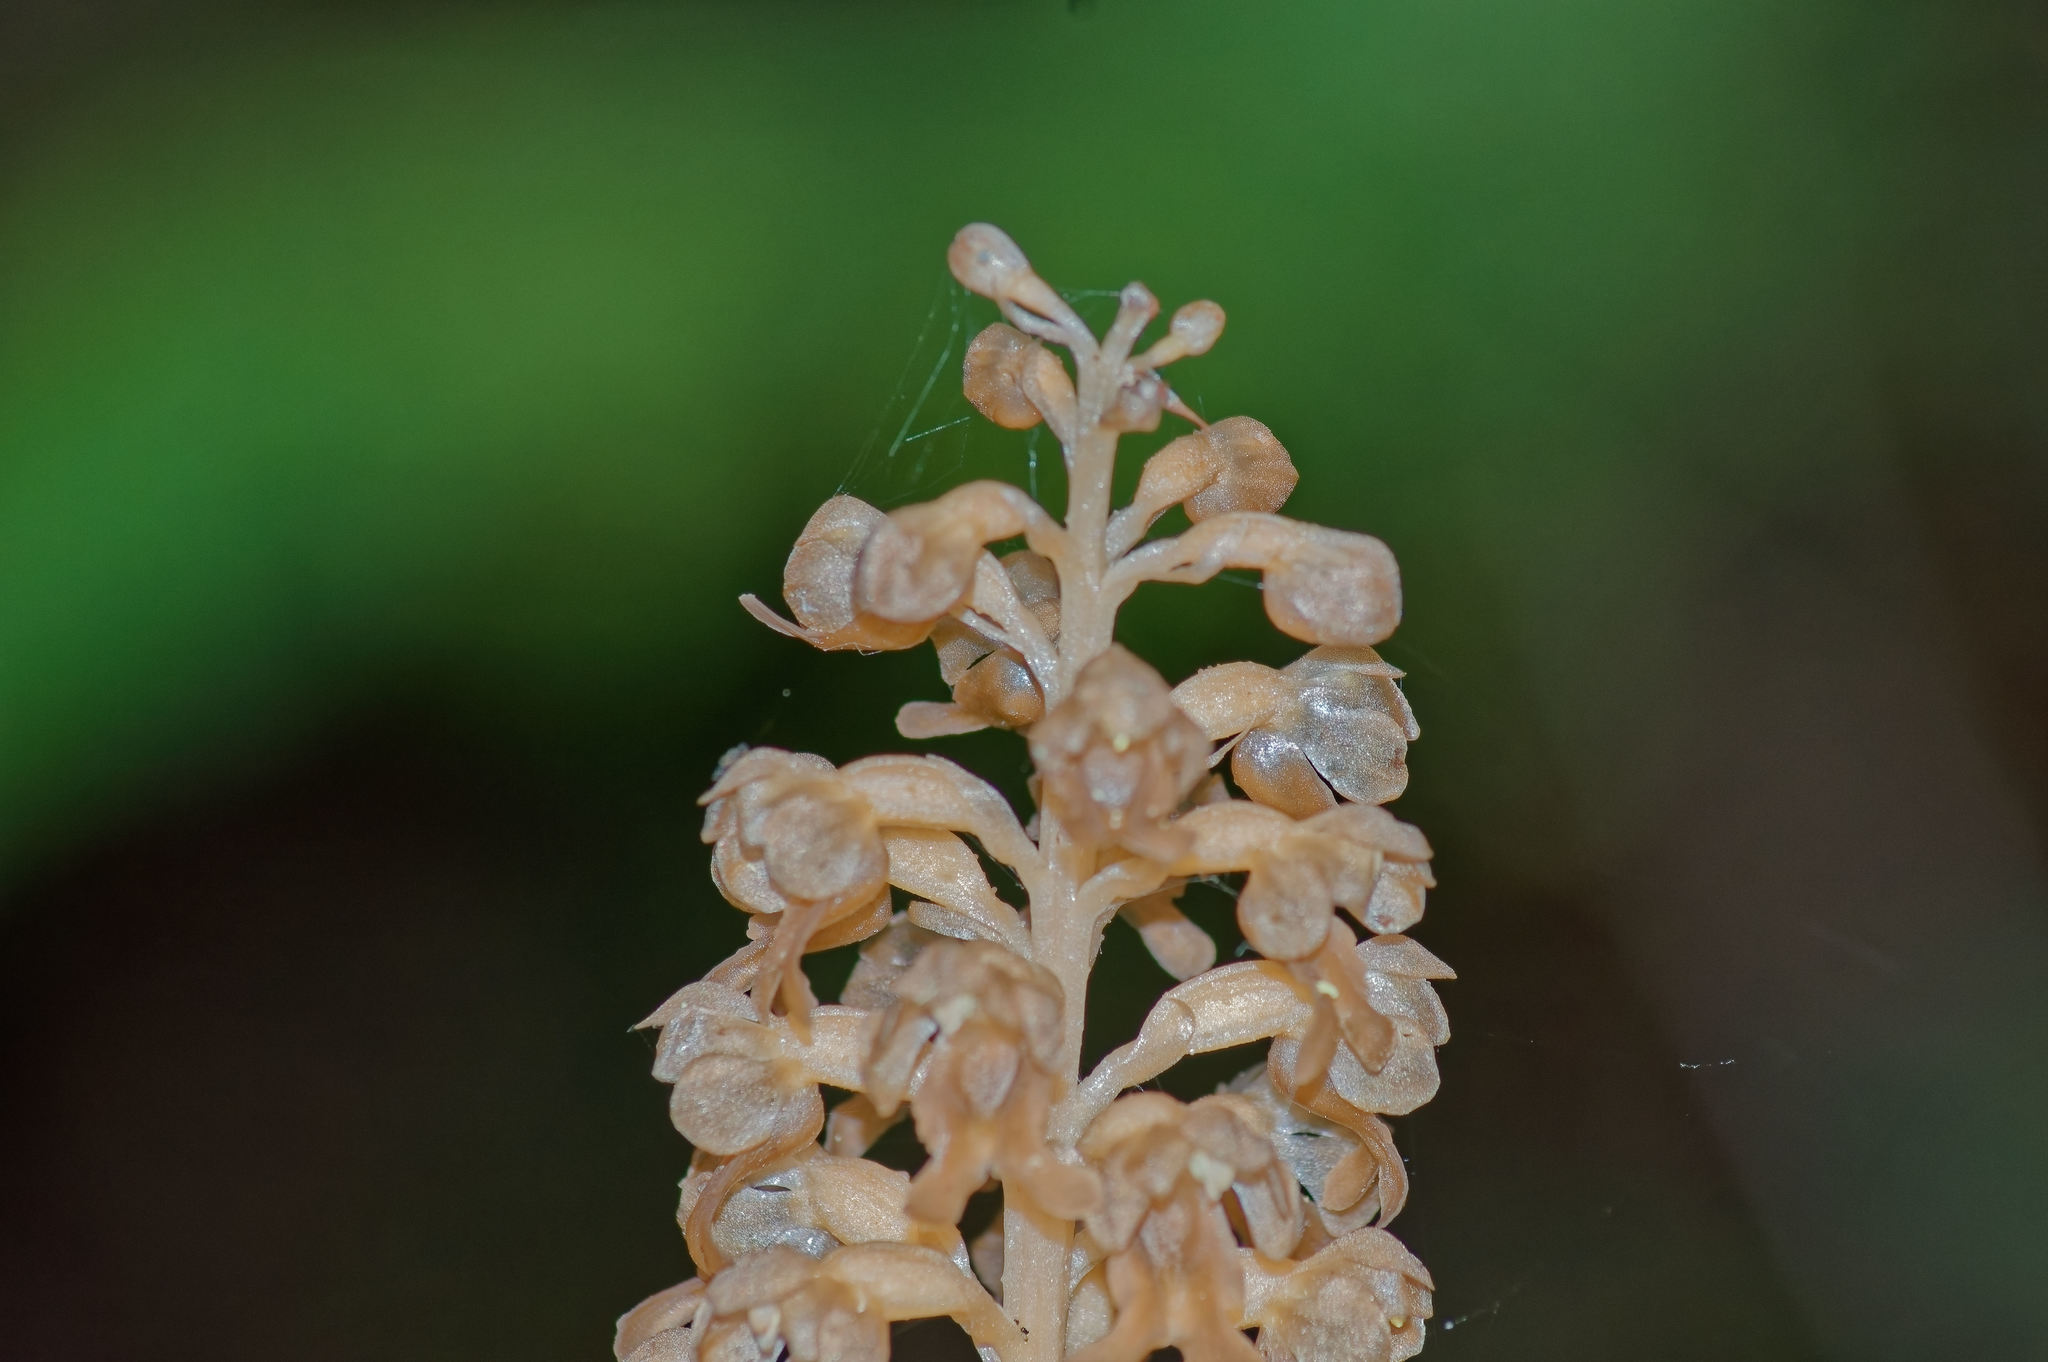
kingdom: Plantae
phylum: Tracheophyta
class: Liliopsida
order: Asparagales
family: Orchidaceae
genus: Neottia
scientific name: Neottia nidus-avis
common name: Bird's-nest orchid
